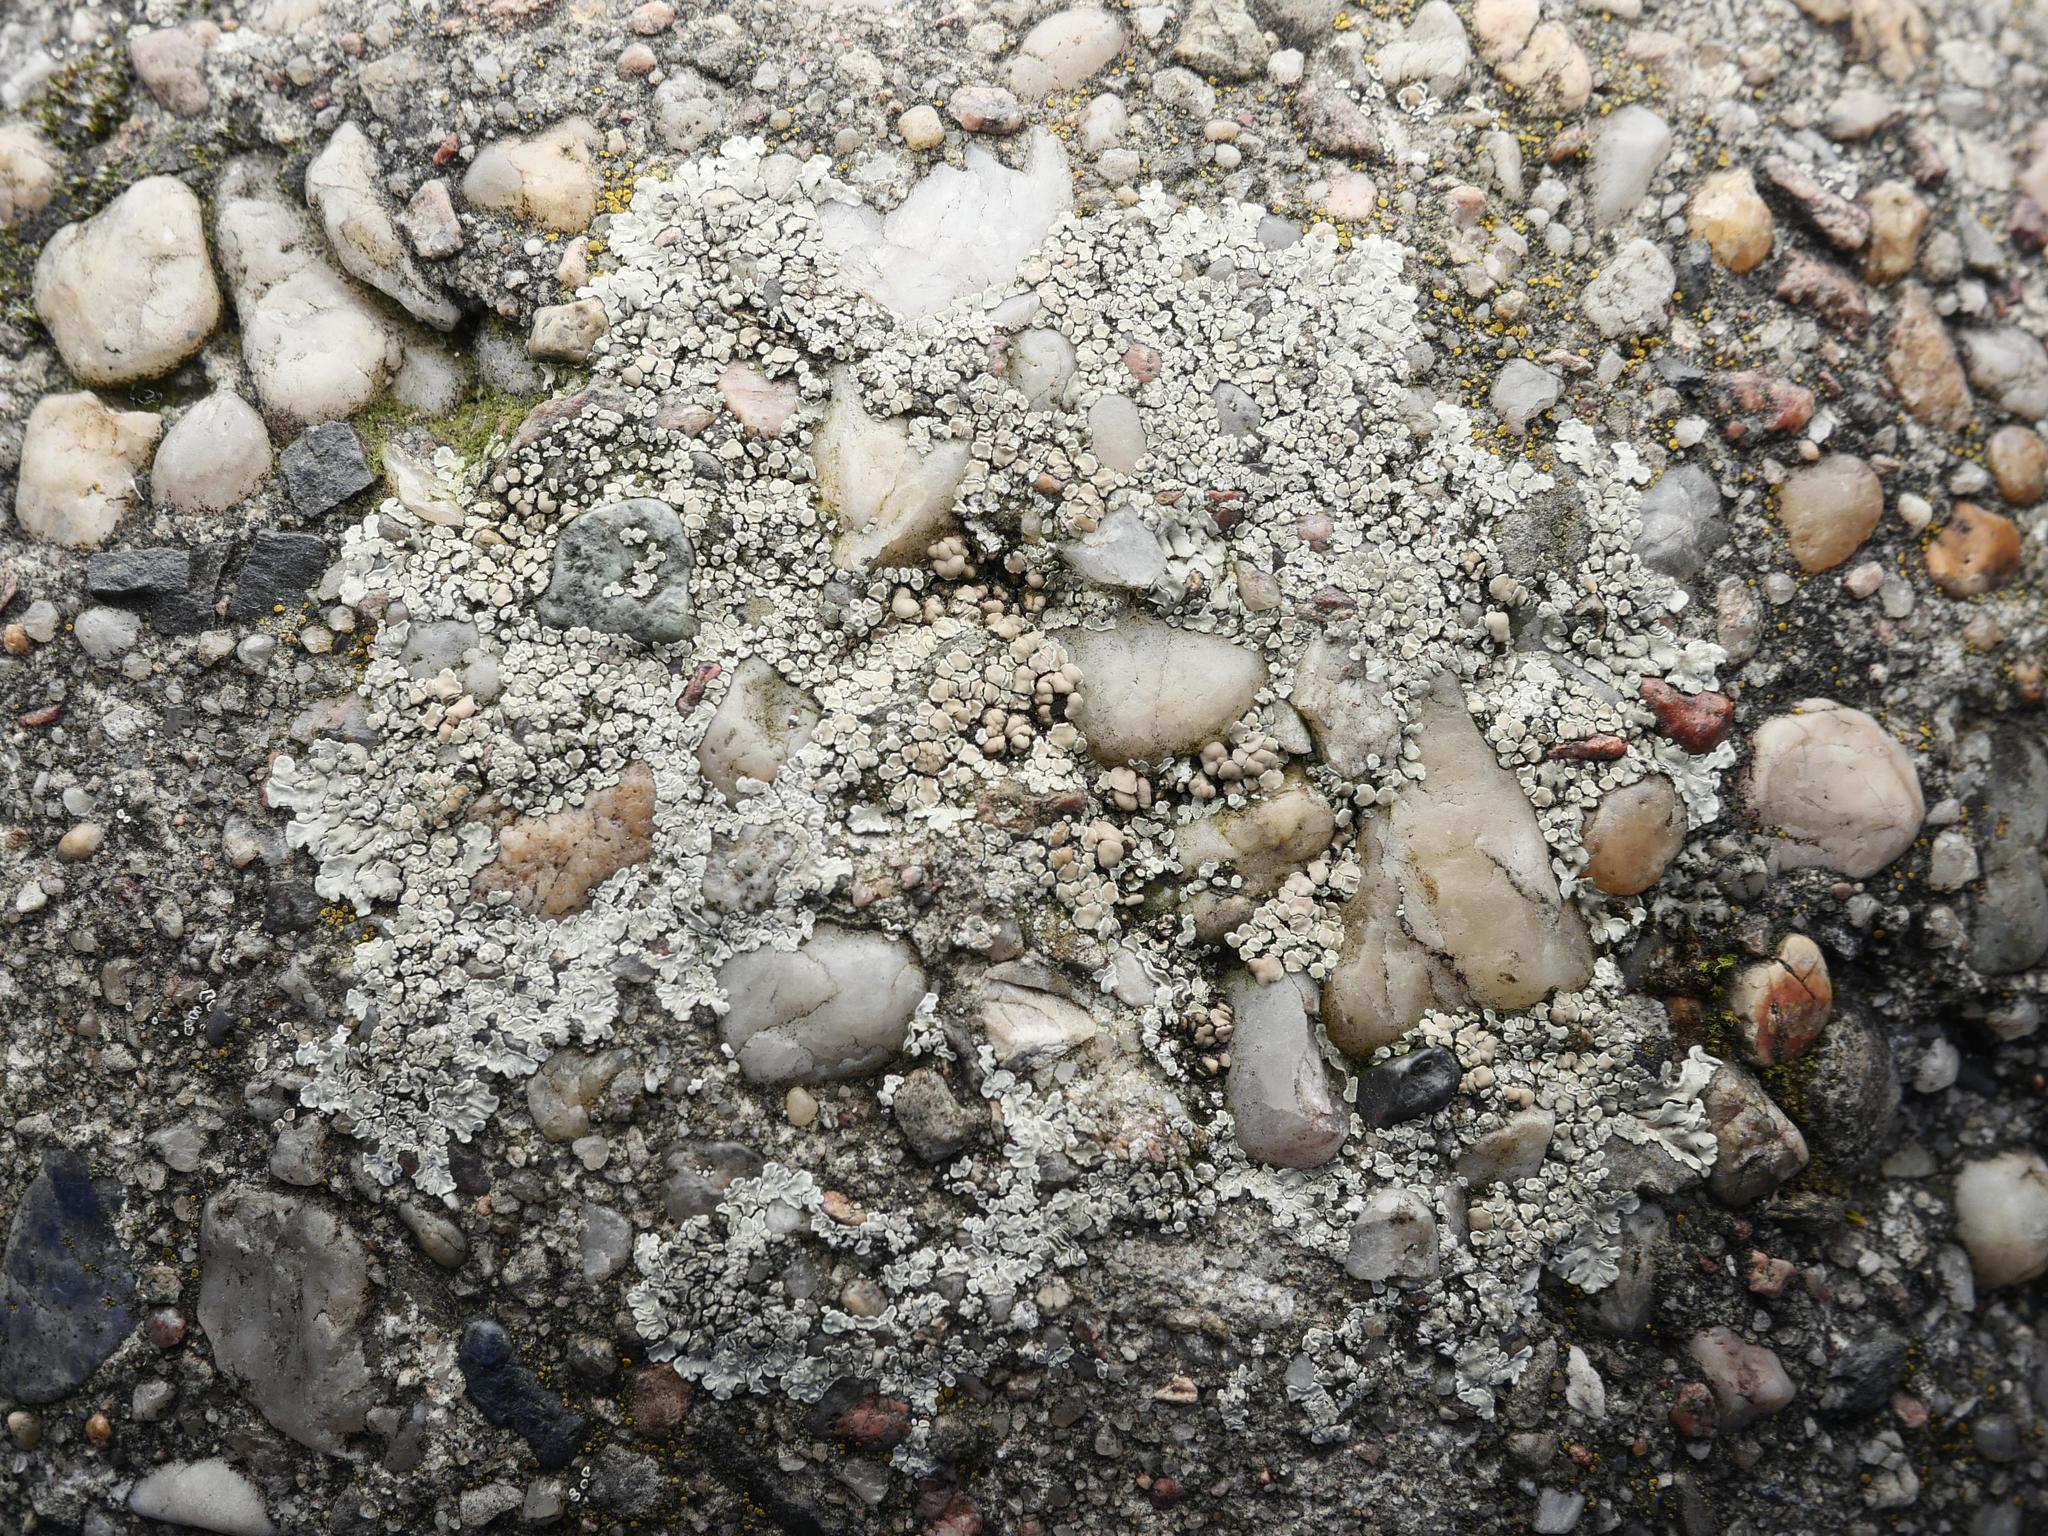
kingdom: Fungi
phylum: Ascomycota
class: Lecanoromycetes
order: Lecanorales
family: Lecanoraceae
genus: Protoparmeliopsis
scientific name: Protoparmeliopsis muralis
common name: Stonewall rim lichen
